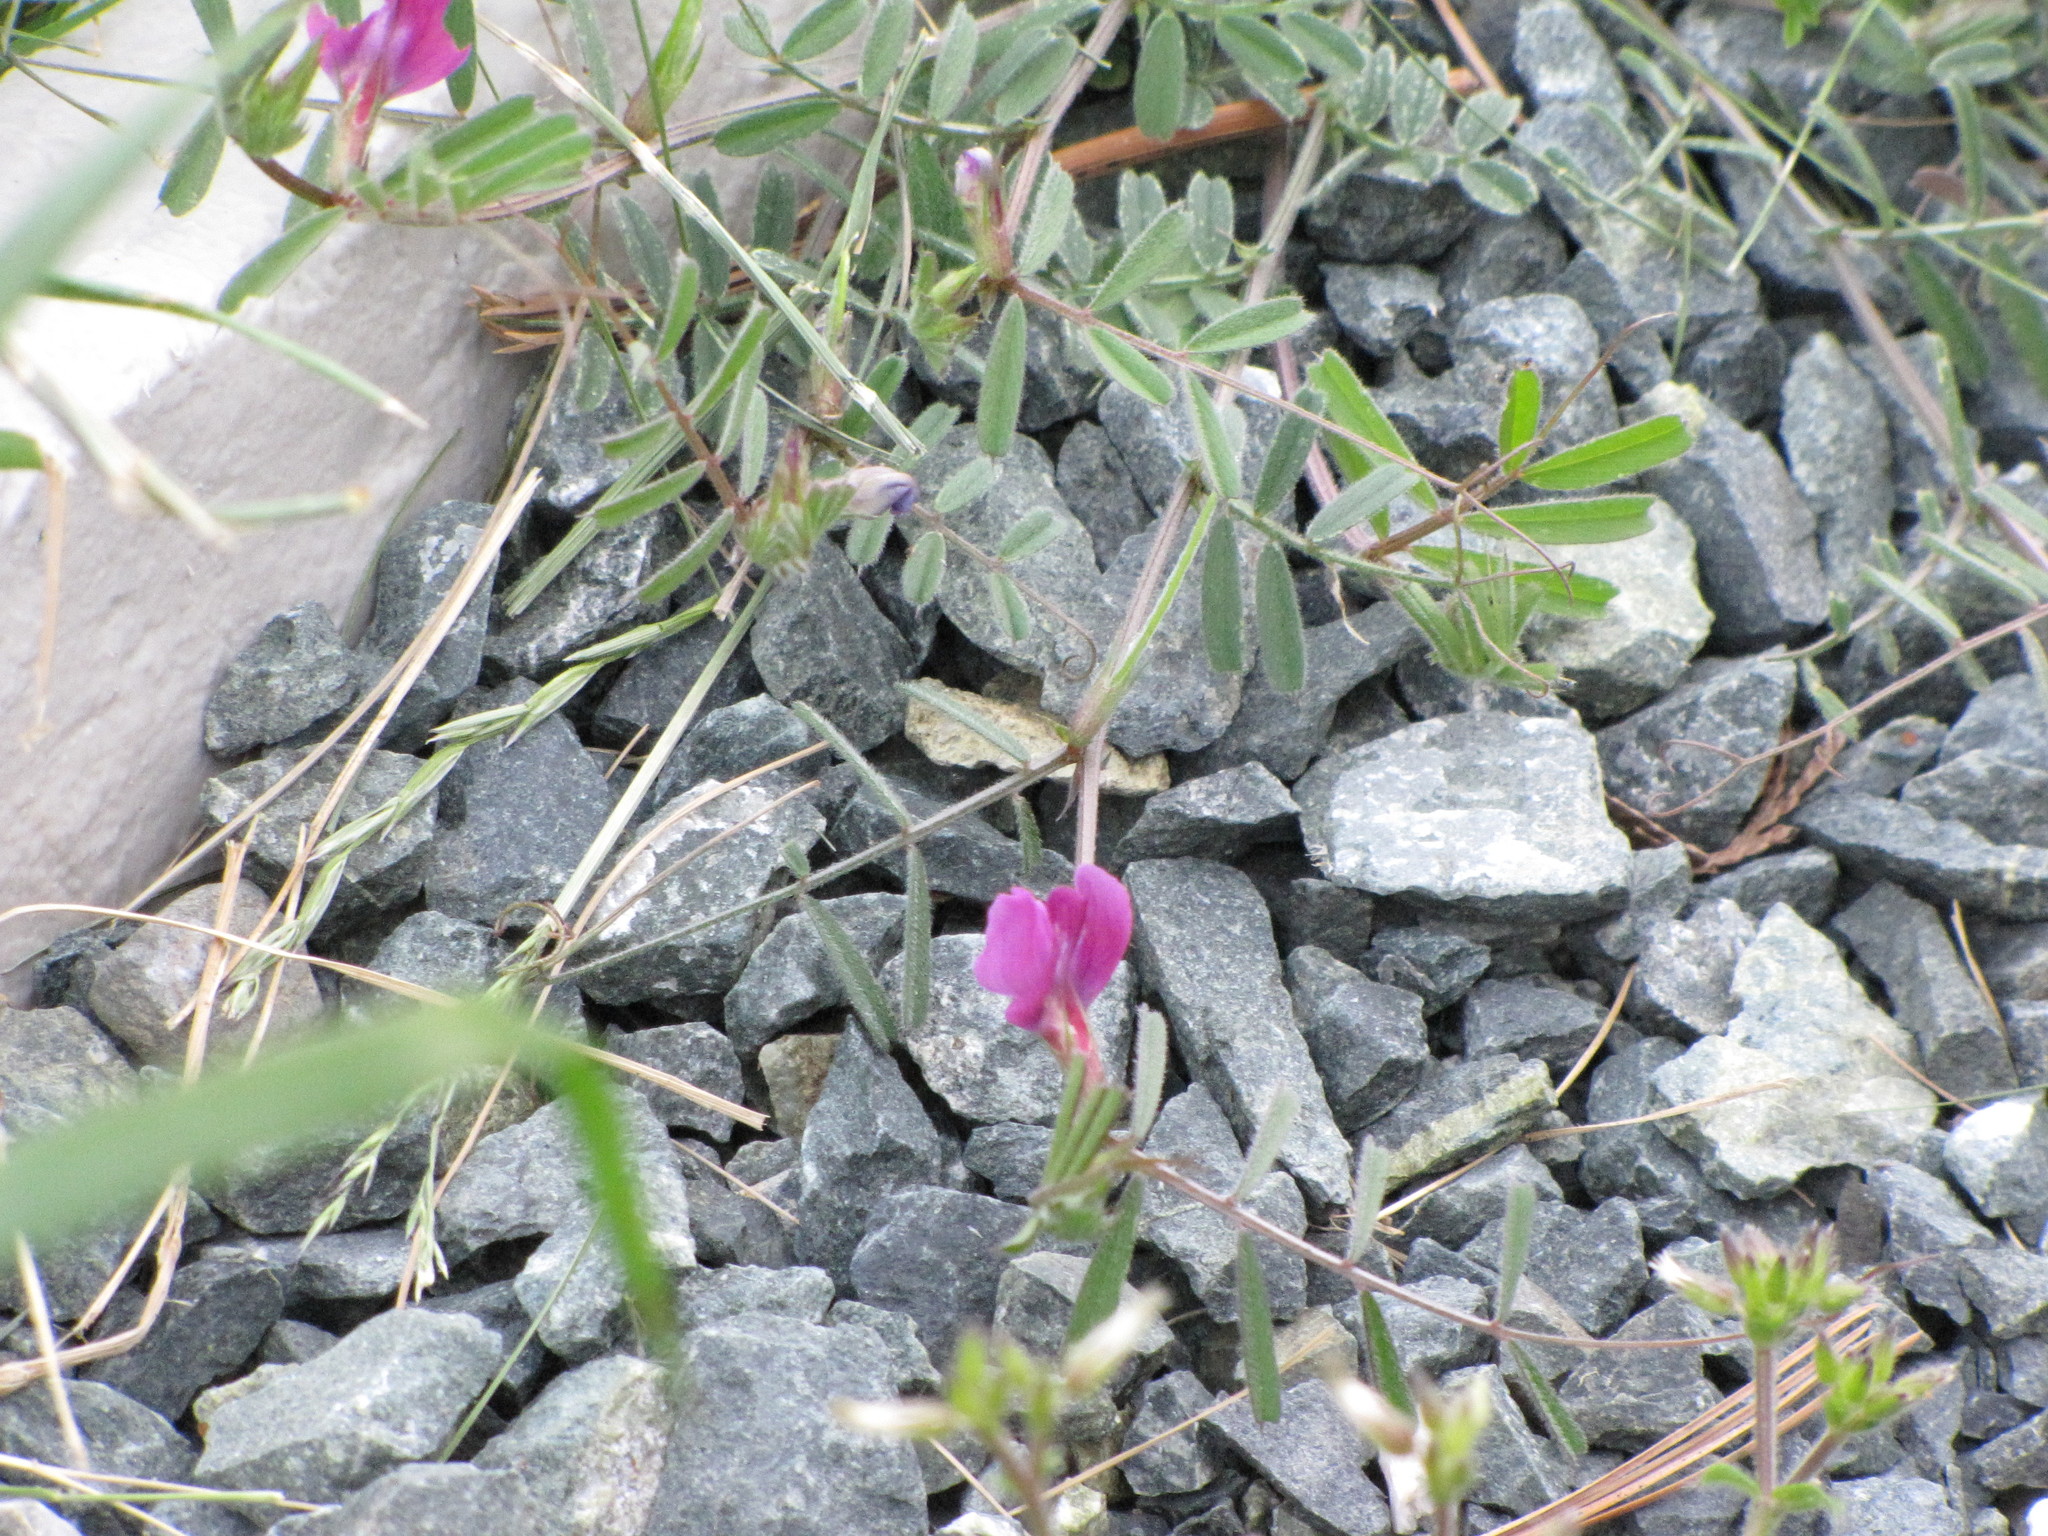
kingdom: Plantae
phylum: Tracheophyta
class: Magnoliopsida
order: Fabales
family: Fabaceae
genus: Vicia
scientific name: Vicia sativa
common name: Garden vetch
